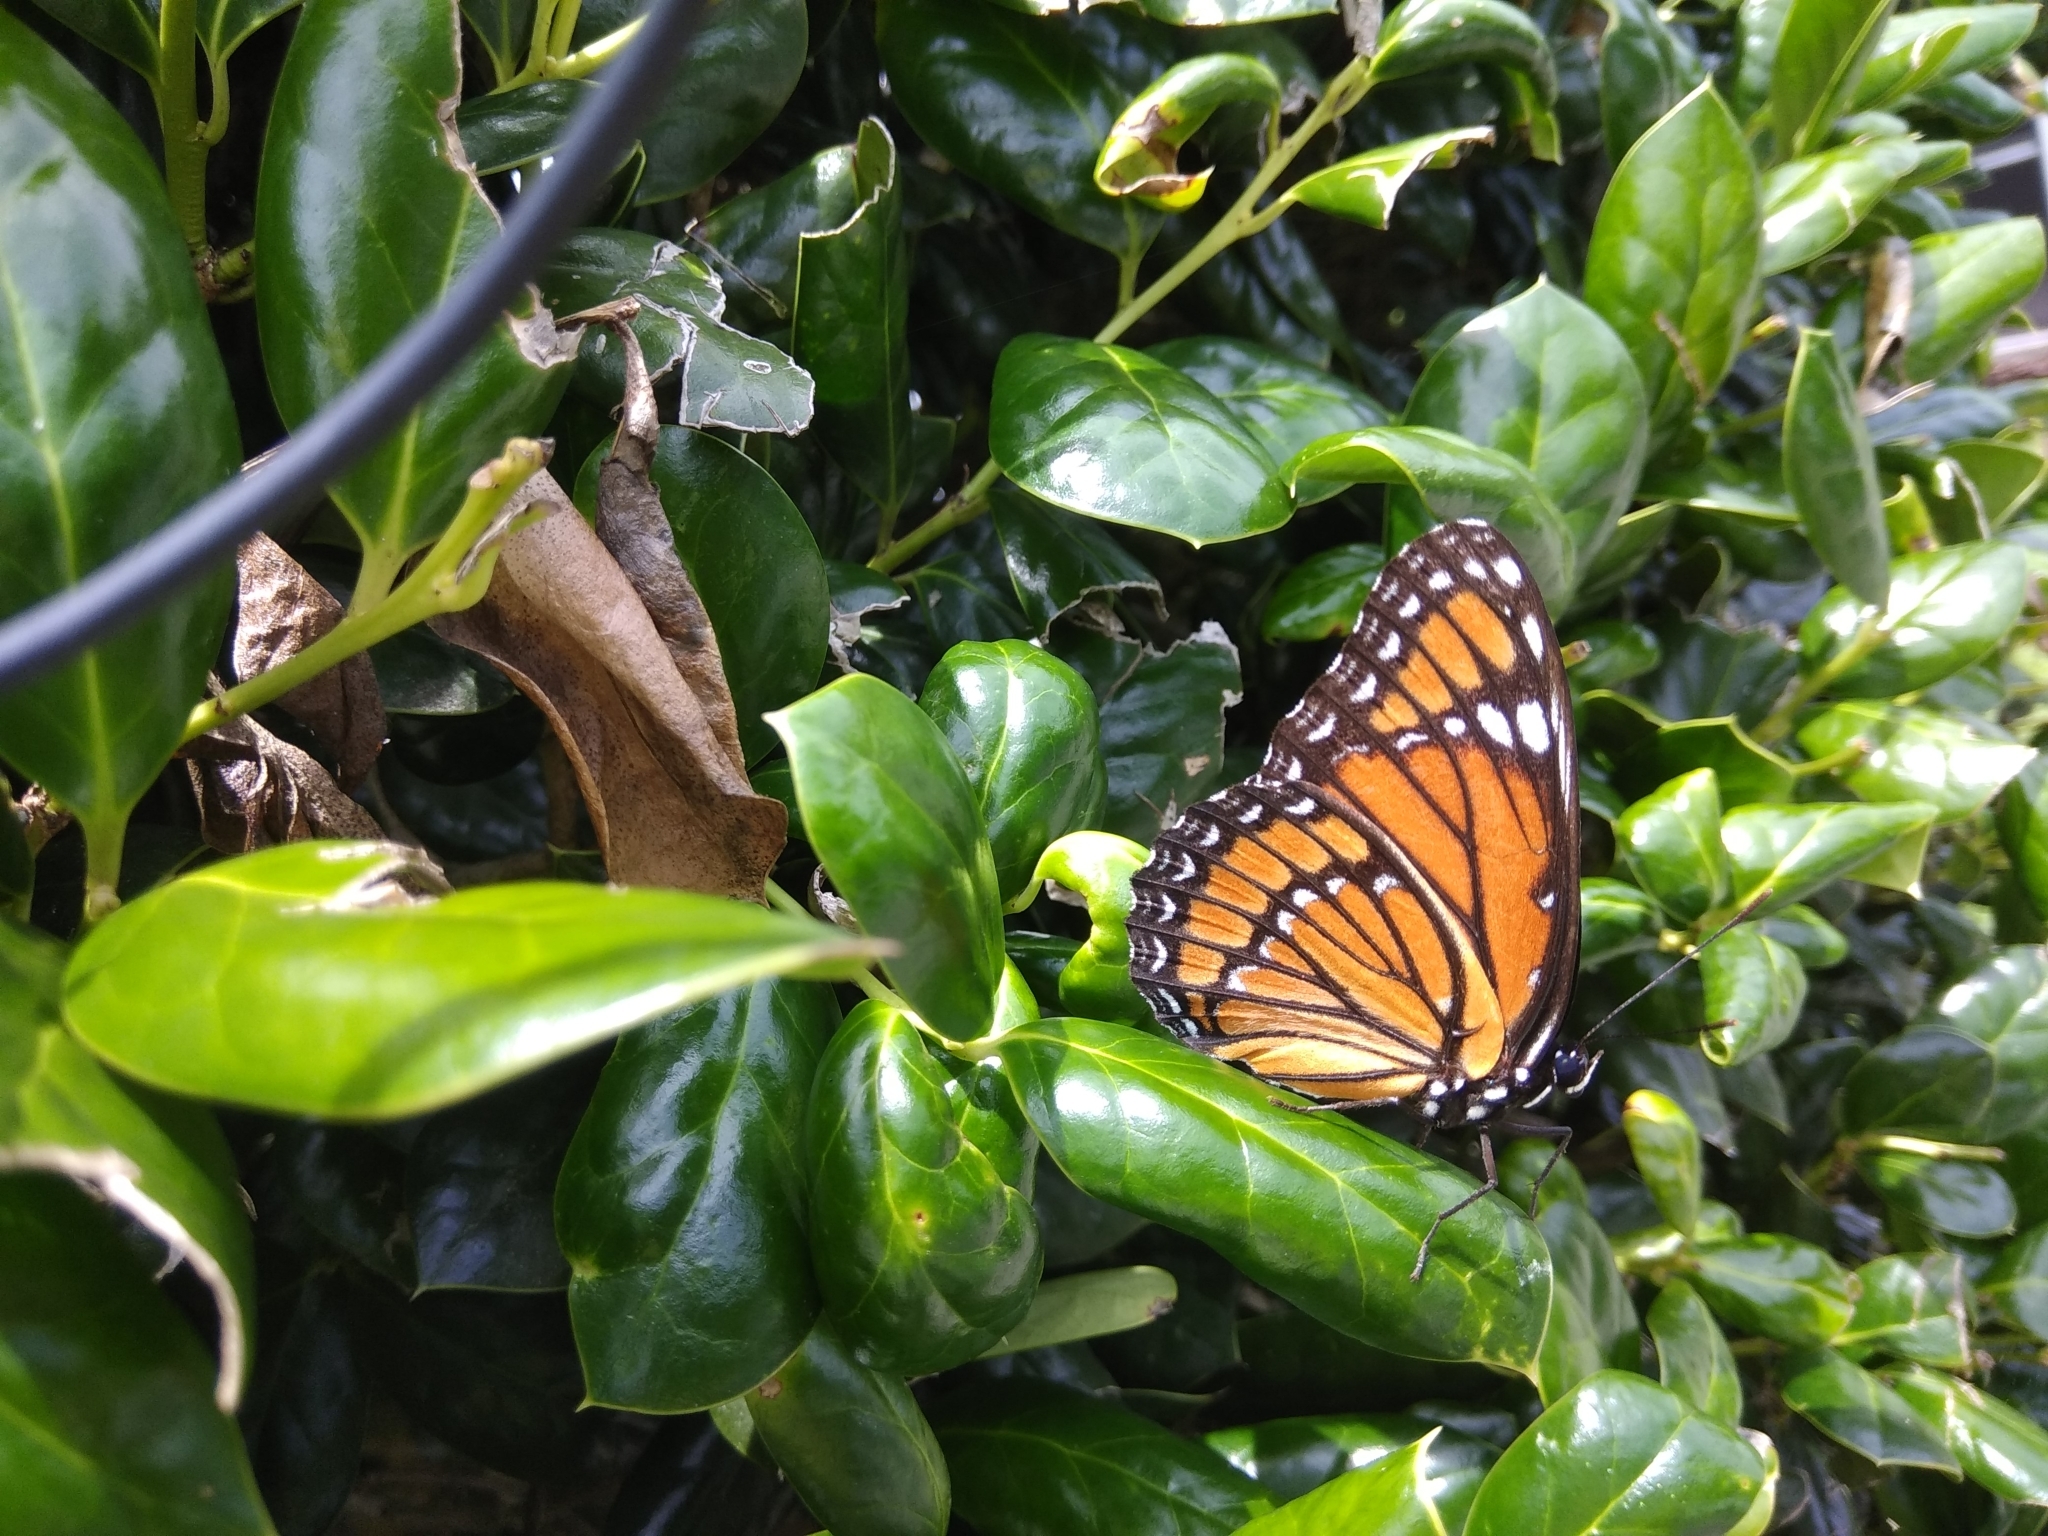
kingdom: Animalia
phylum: Arthropoda
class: Insecta
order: Lepidoptera
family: Nymphalidae
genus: Limenitis
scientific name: Limenitis archippus
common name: Viceroy
